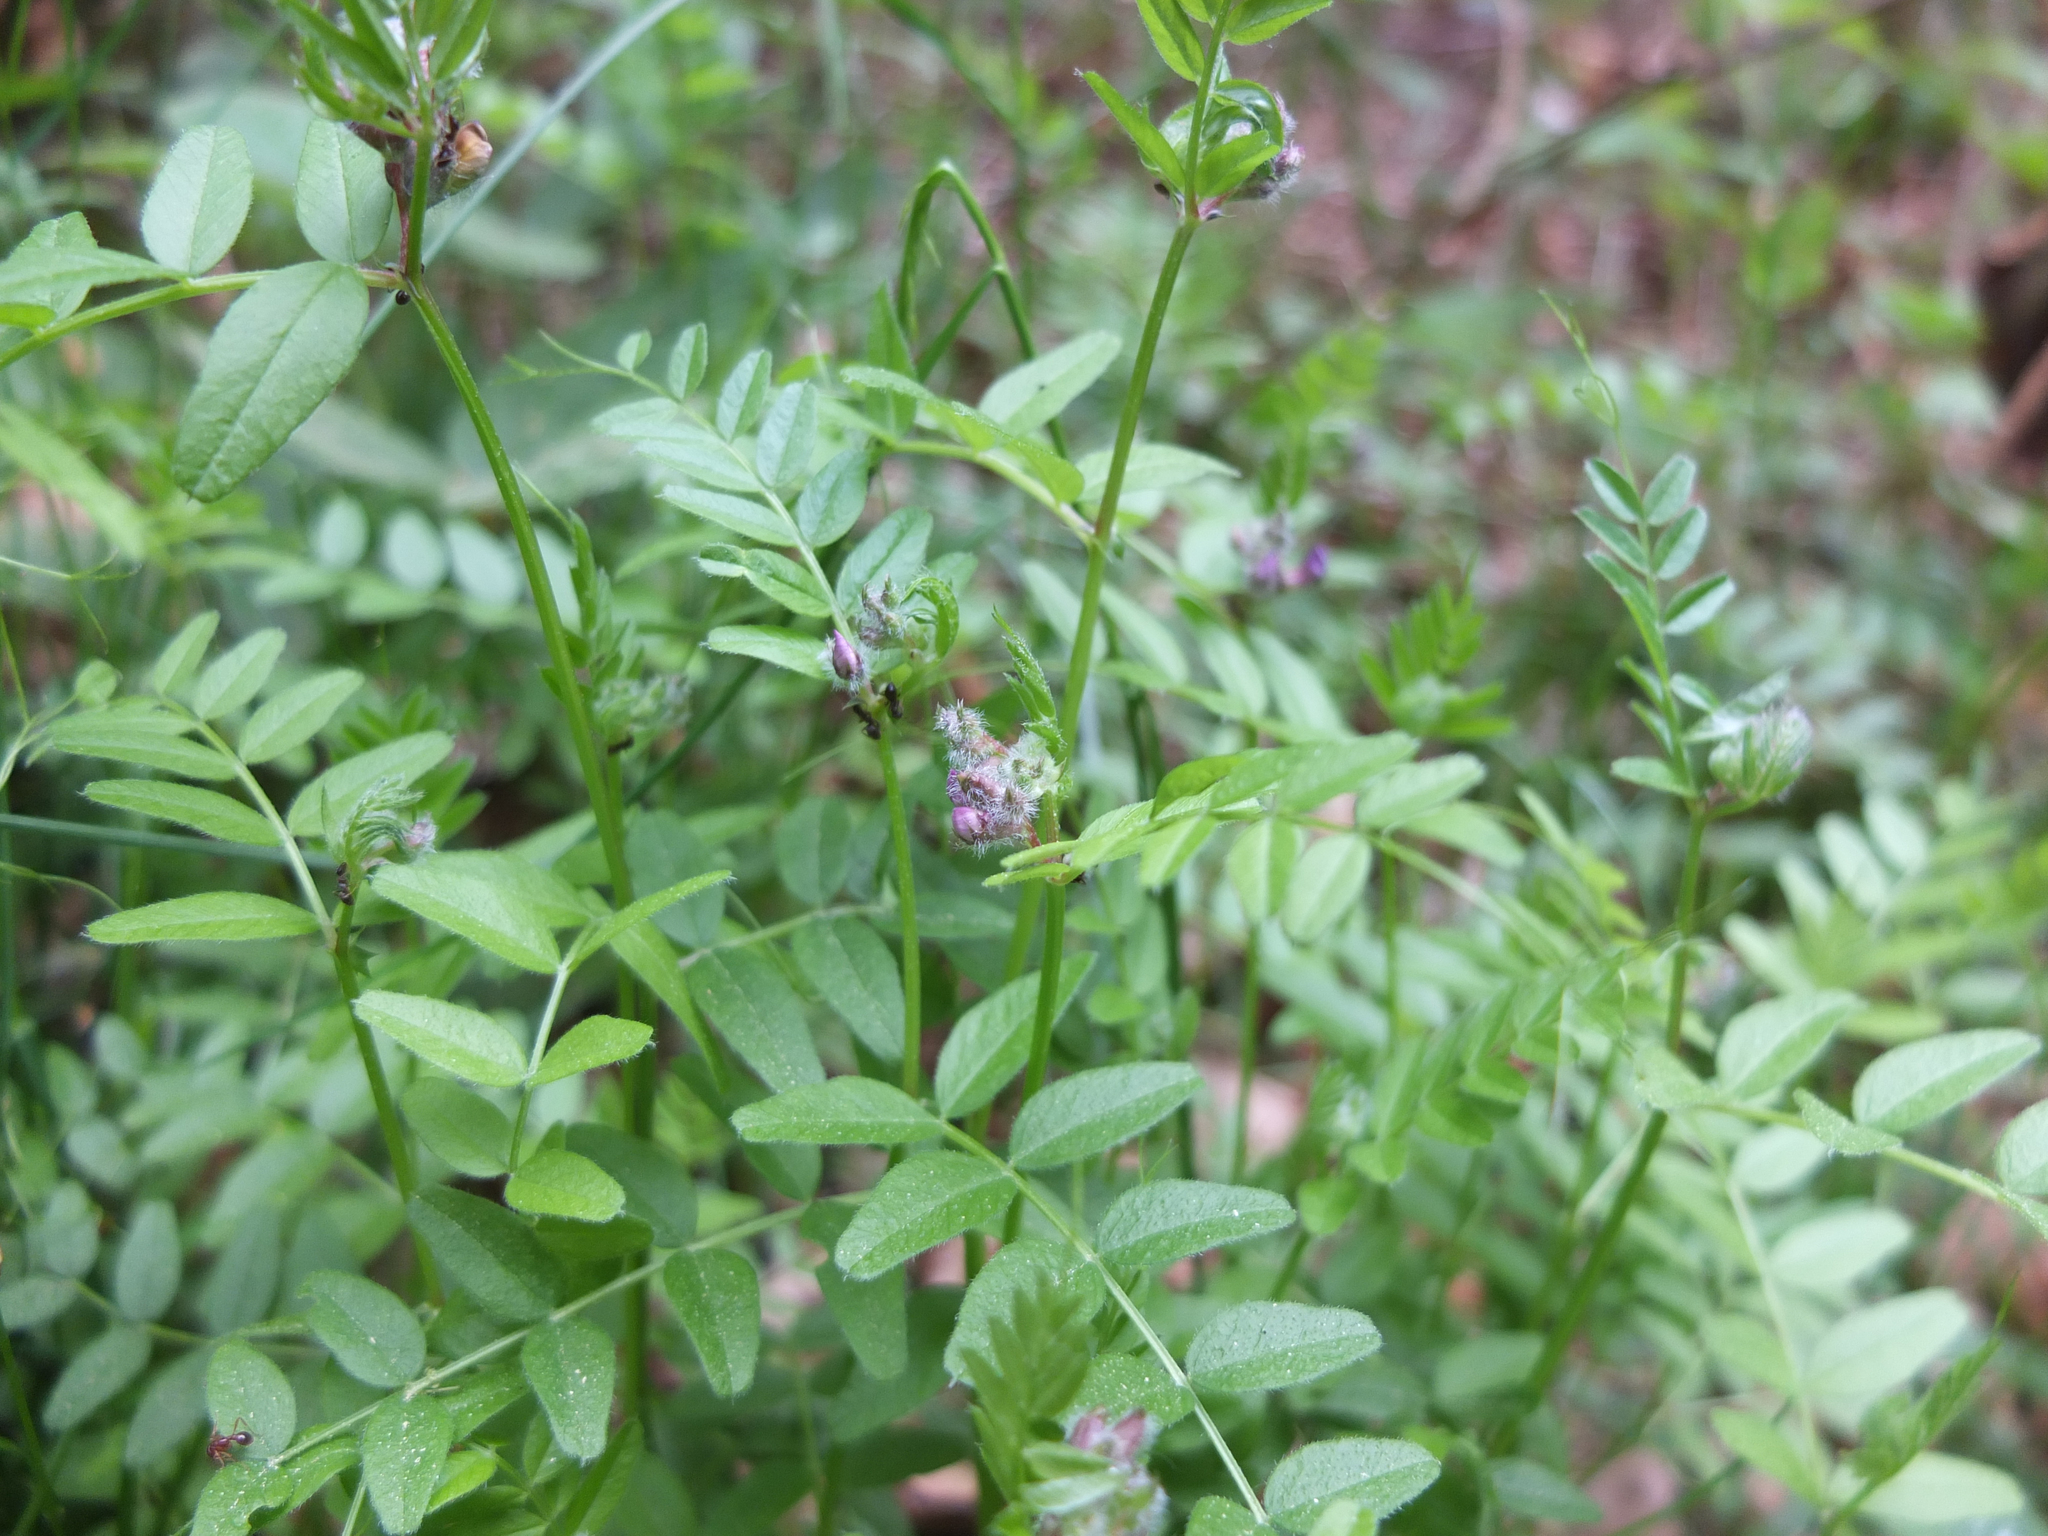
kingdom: Plantae
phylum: Tracheophyta
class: Magnoliopsida
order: Fabales
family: Fabaceae
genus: Vicia
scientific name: Vicia sepium
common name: Bush vetch
